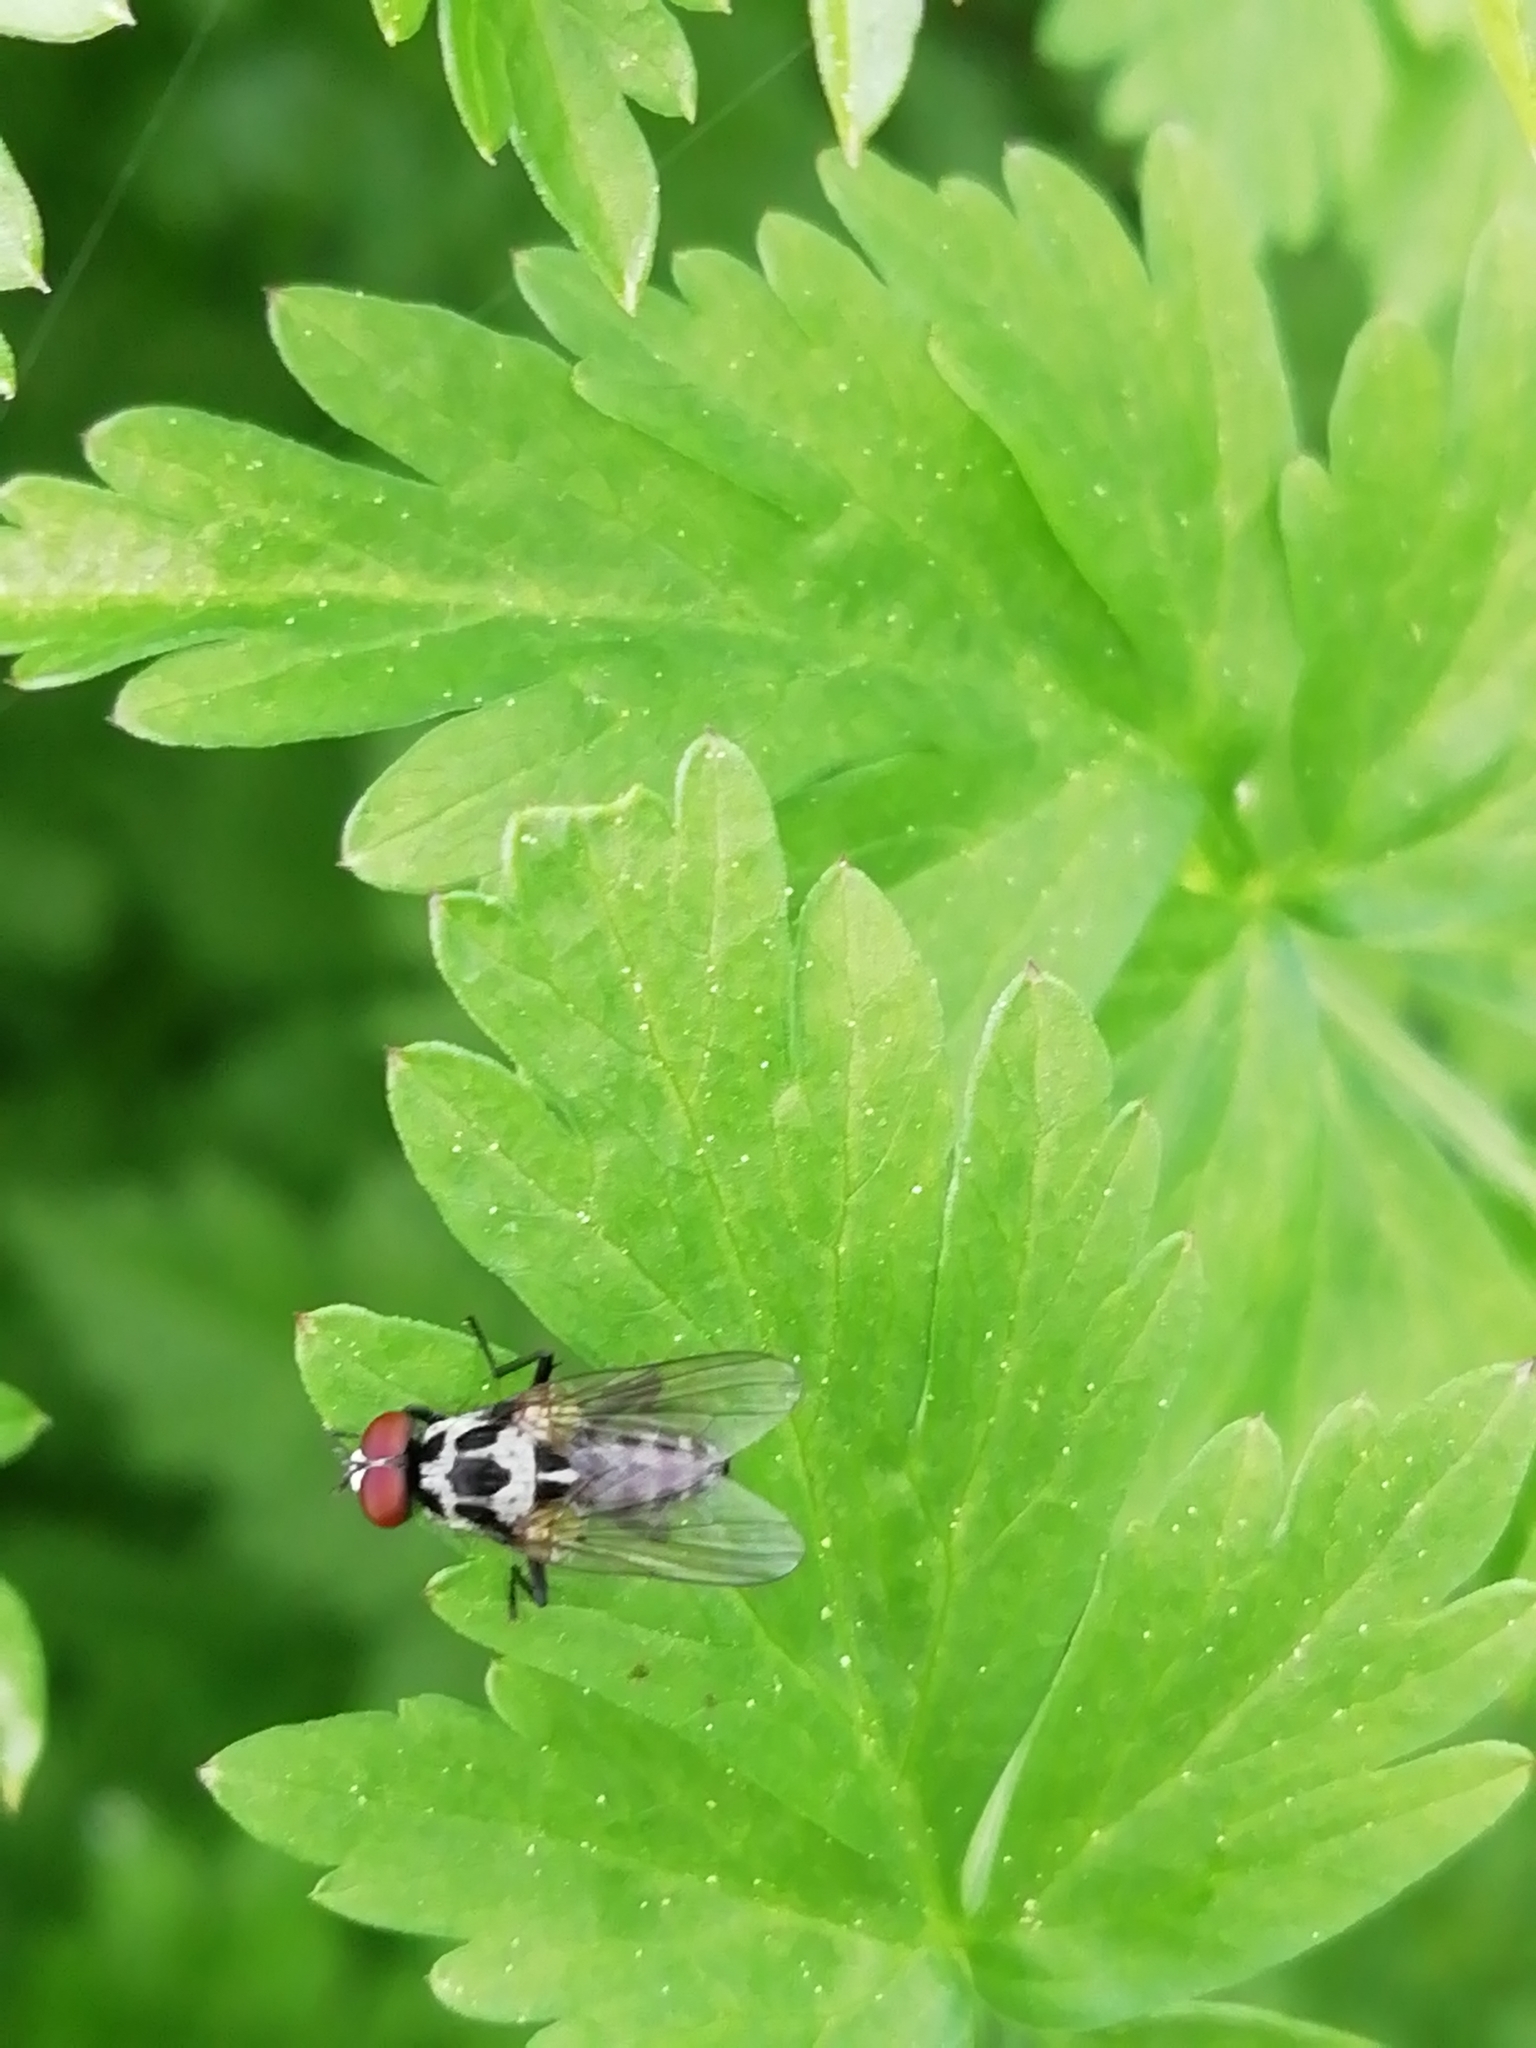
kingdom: Animalia
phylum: Arthropoda
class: Insecta
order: Diptera
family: Anthomyiidae
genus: Anthomyia
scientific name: Anthomyia procellaris
